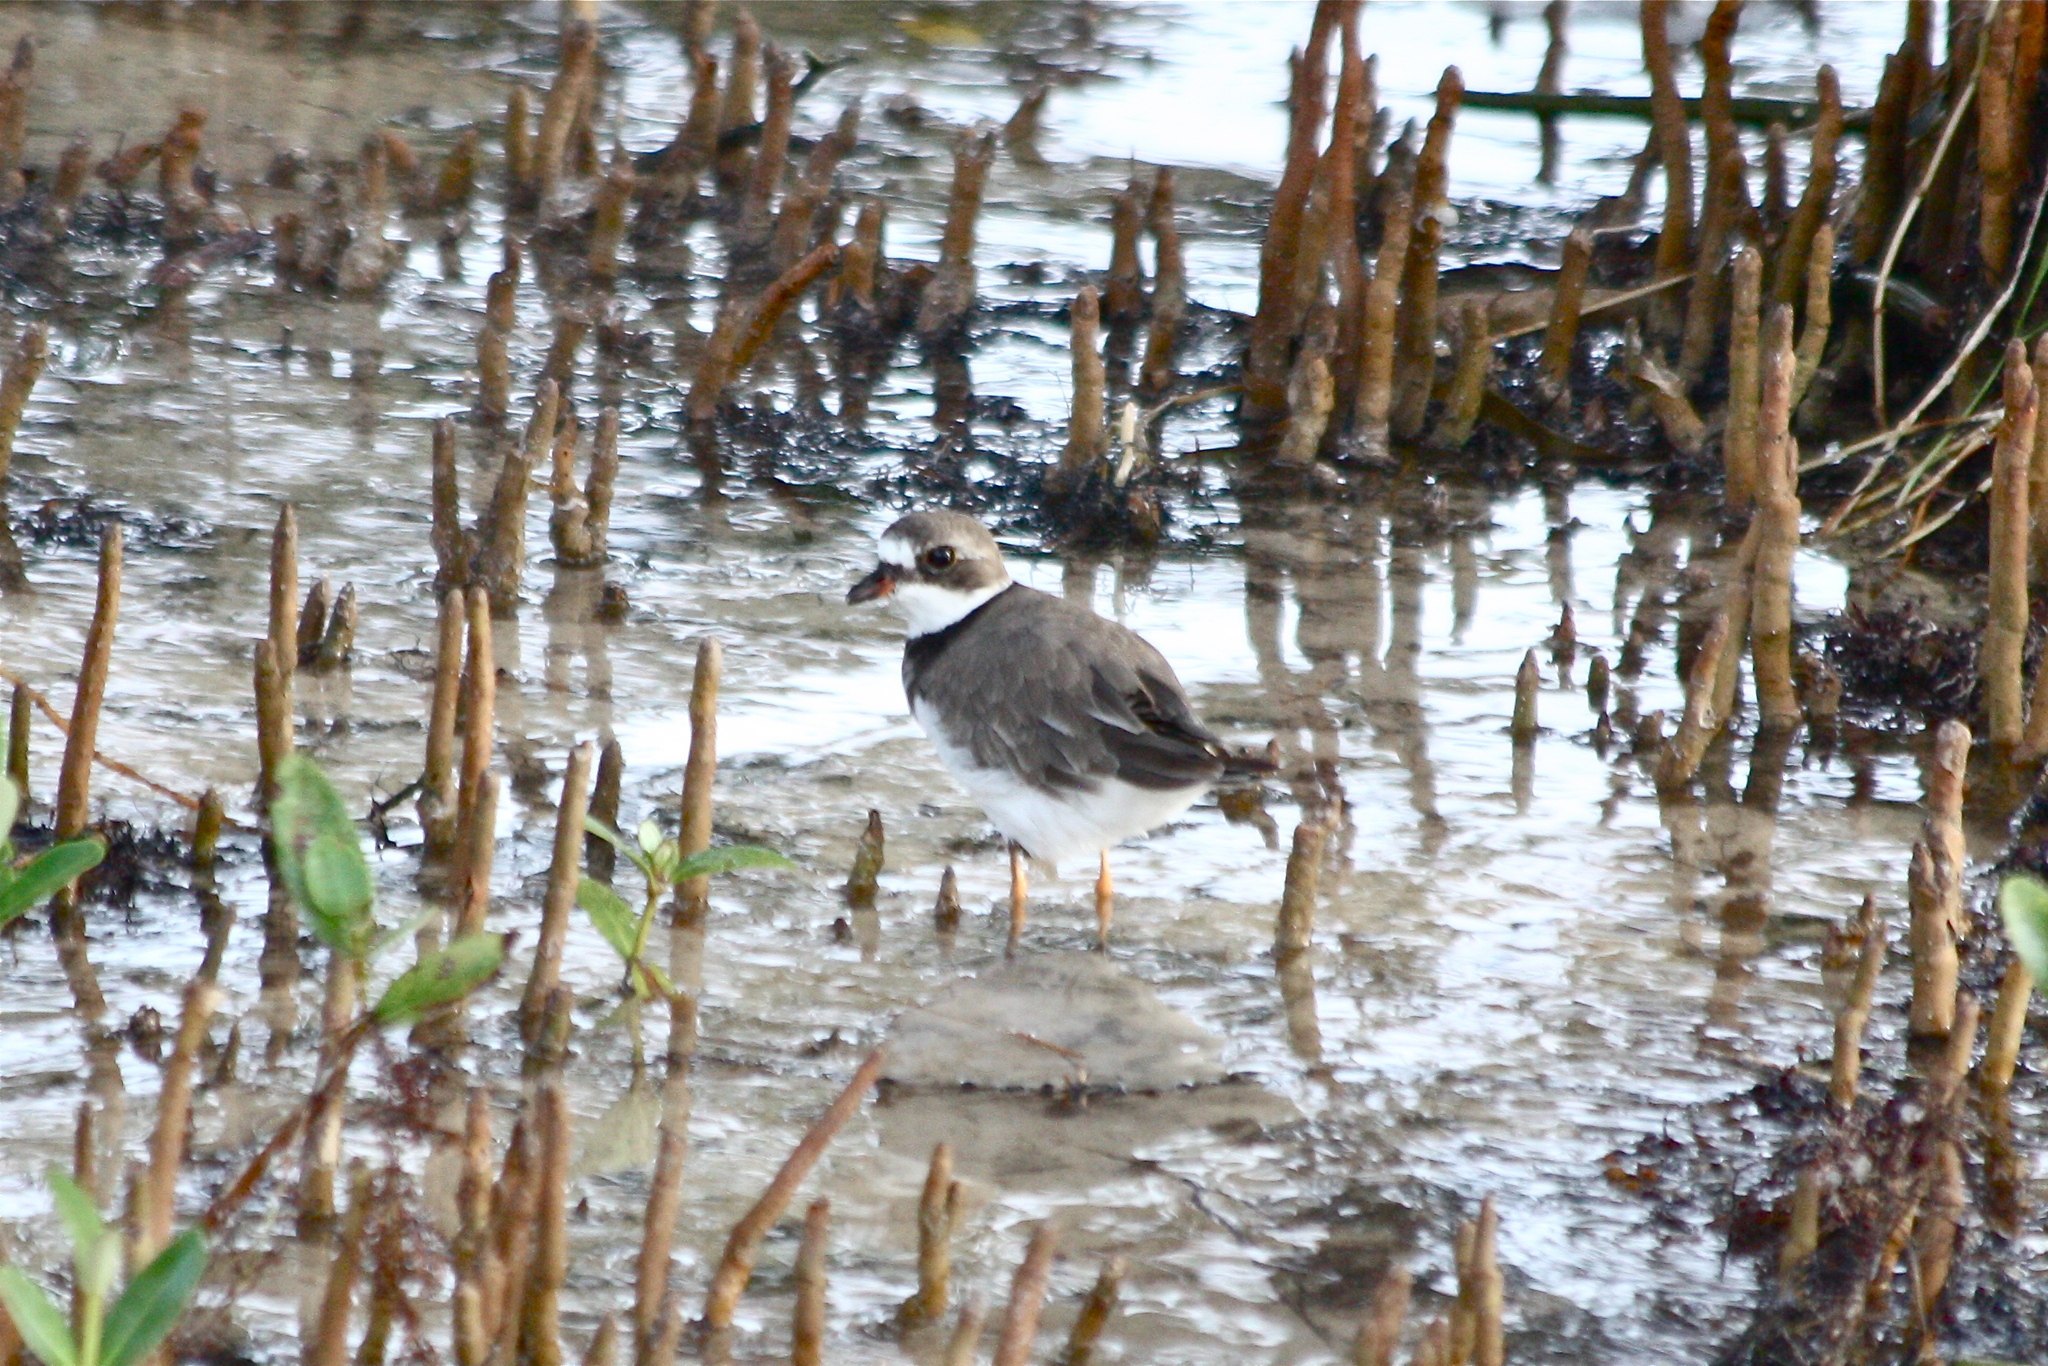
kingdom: Animalia
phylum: Chordata
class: Aves
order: Charadriiformes
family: Charadriidae
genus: Charadrius
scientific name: Charadrius semipalmatus
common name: Semipalmated plover
